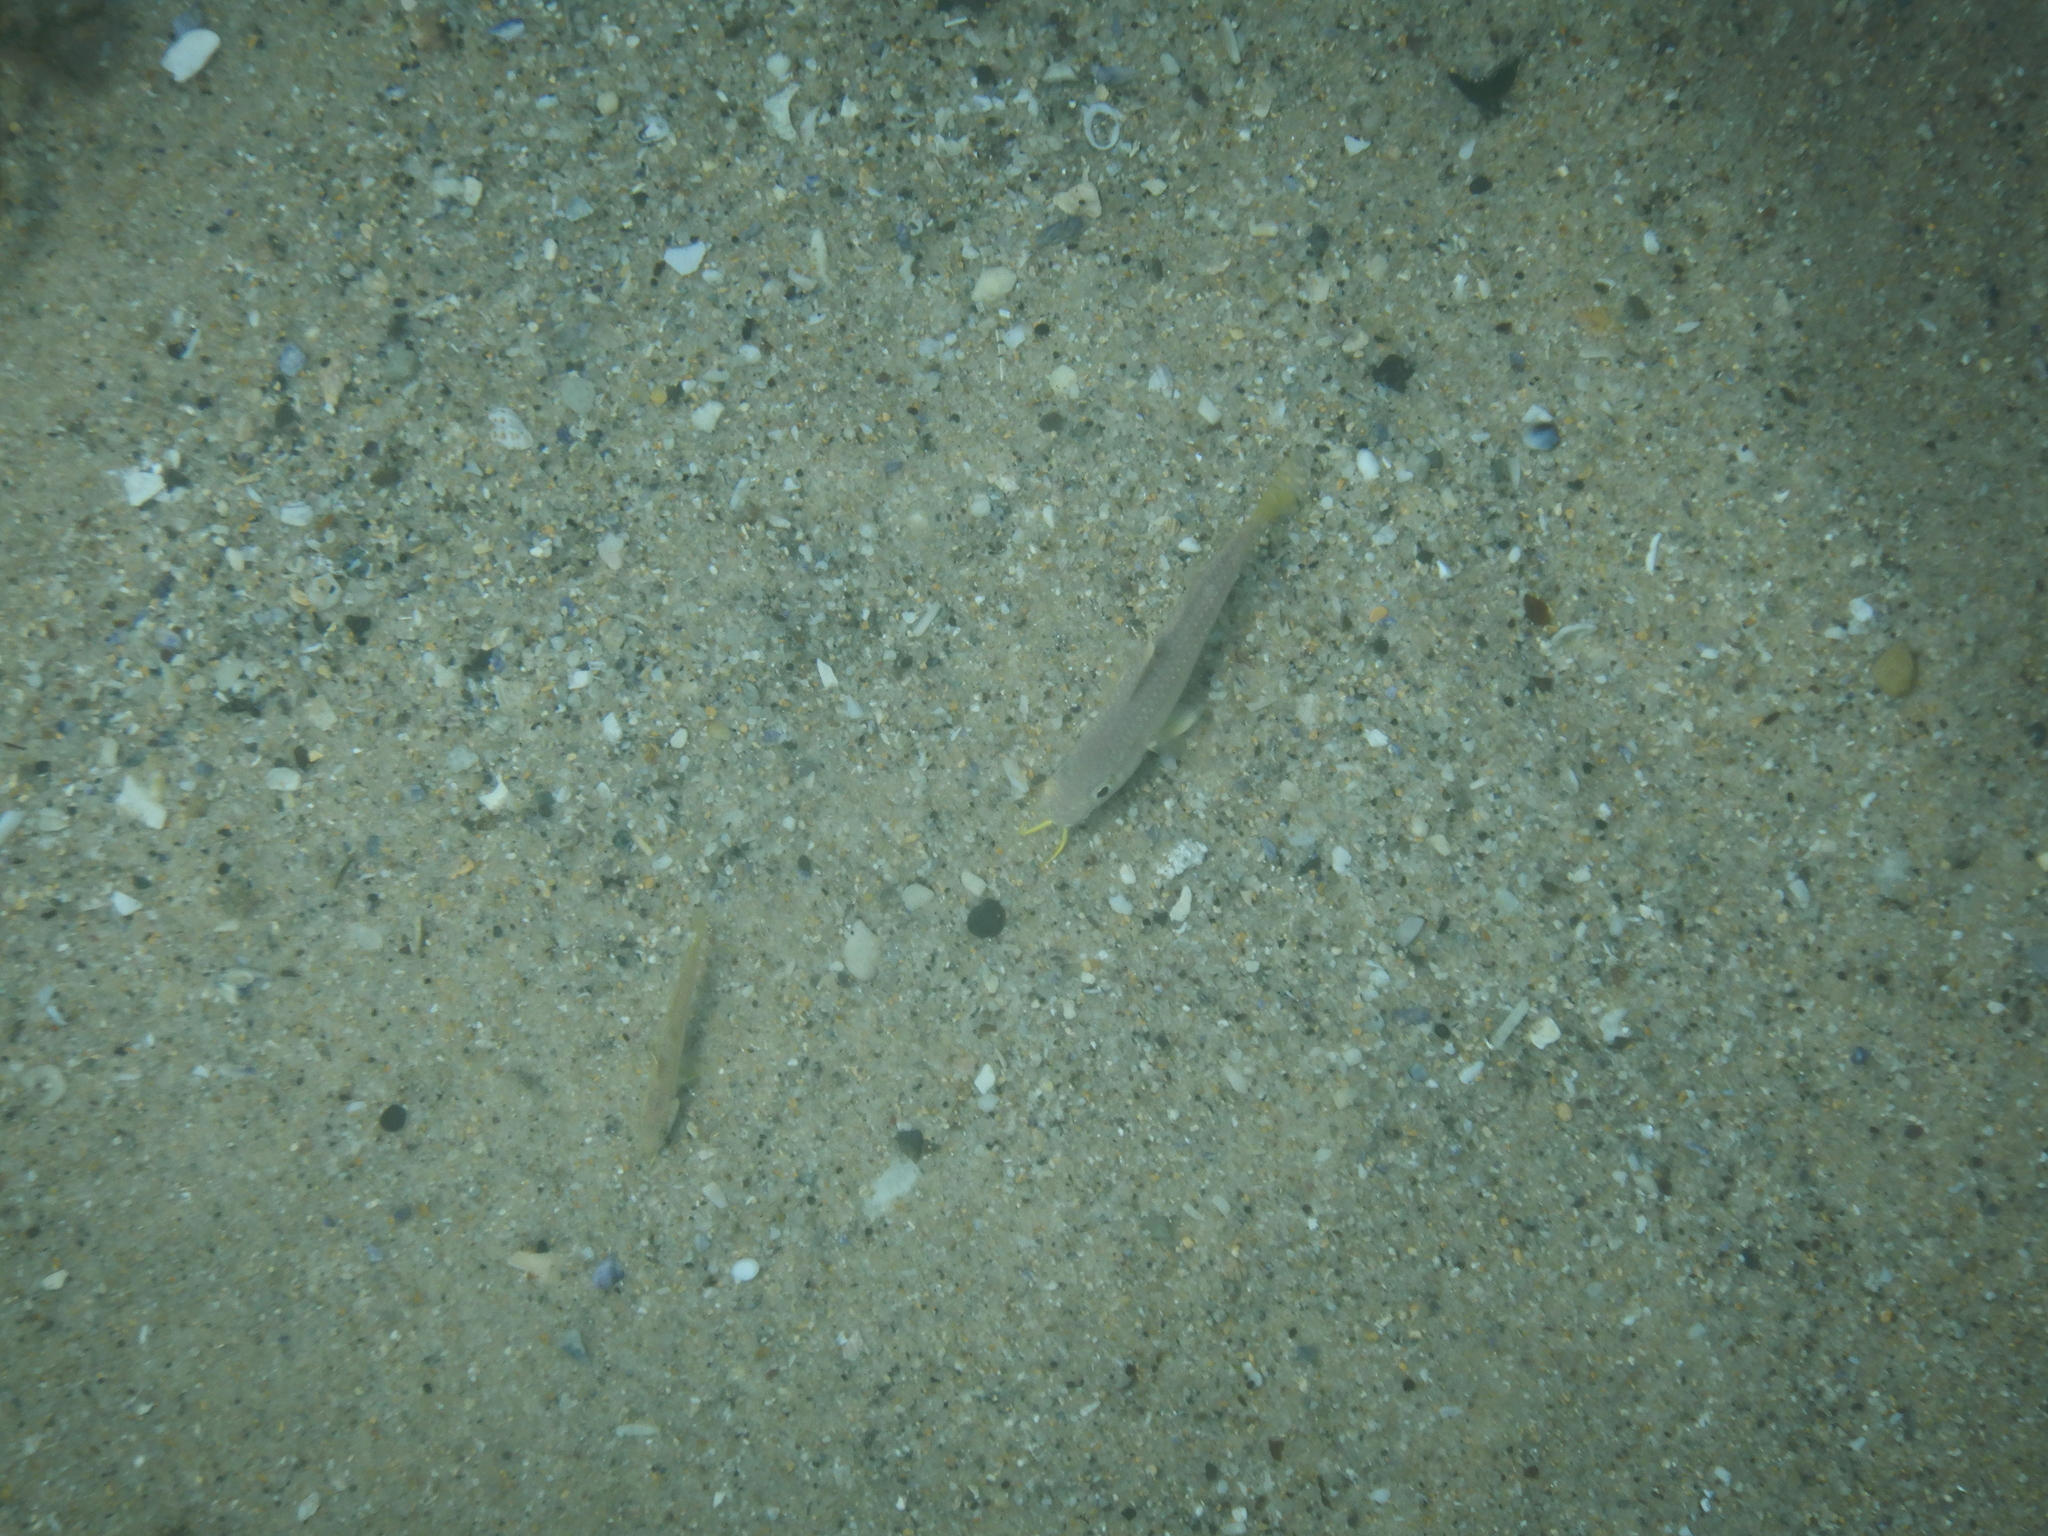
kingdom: Animalia
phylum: Chordata
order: Perciformes
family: Mullidae
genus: Upeneichthys
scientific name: Upeneichthys lineatus
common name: Red mullet
